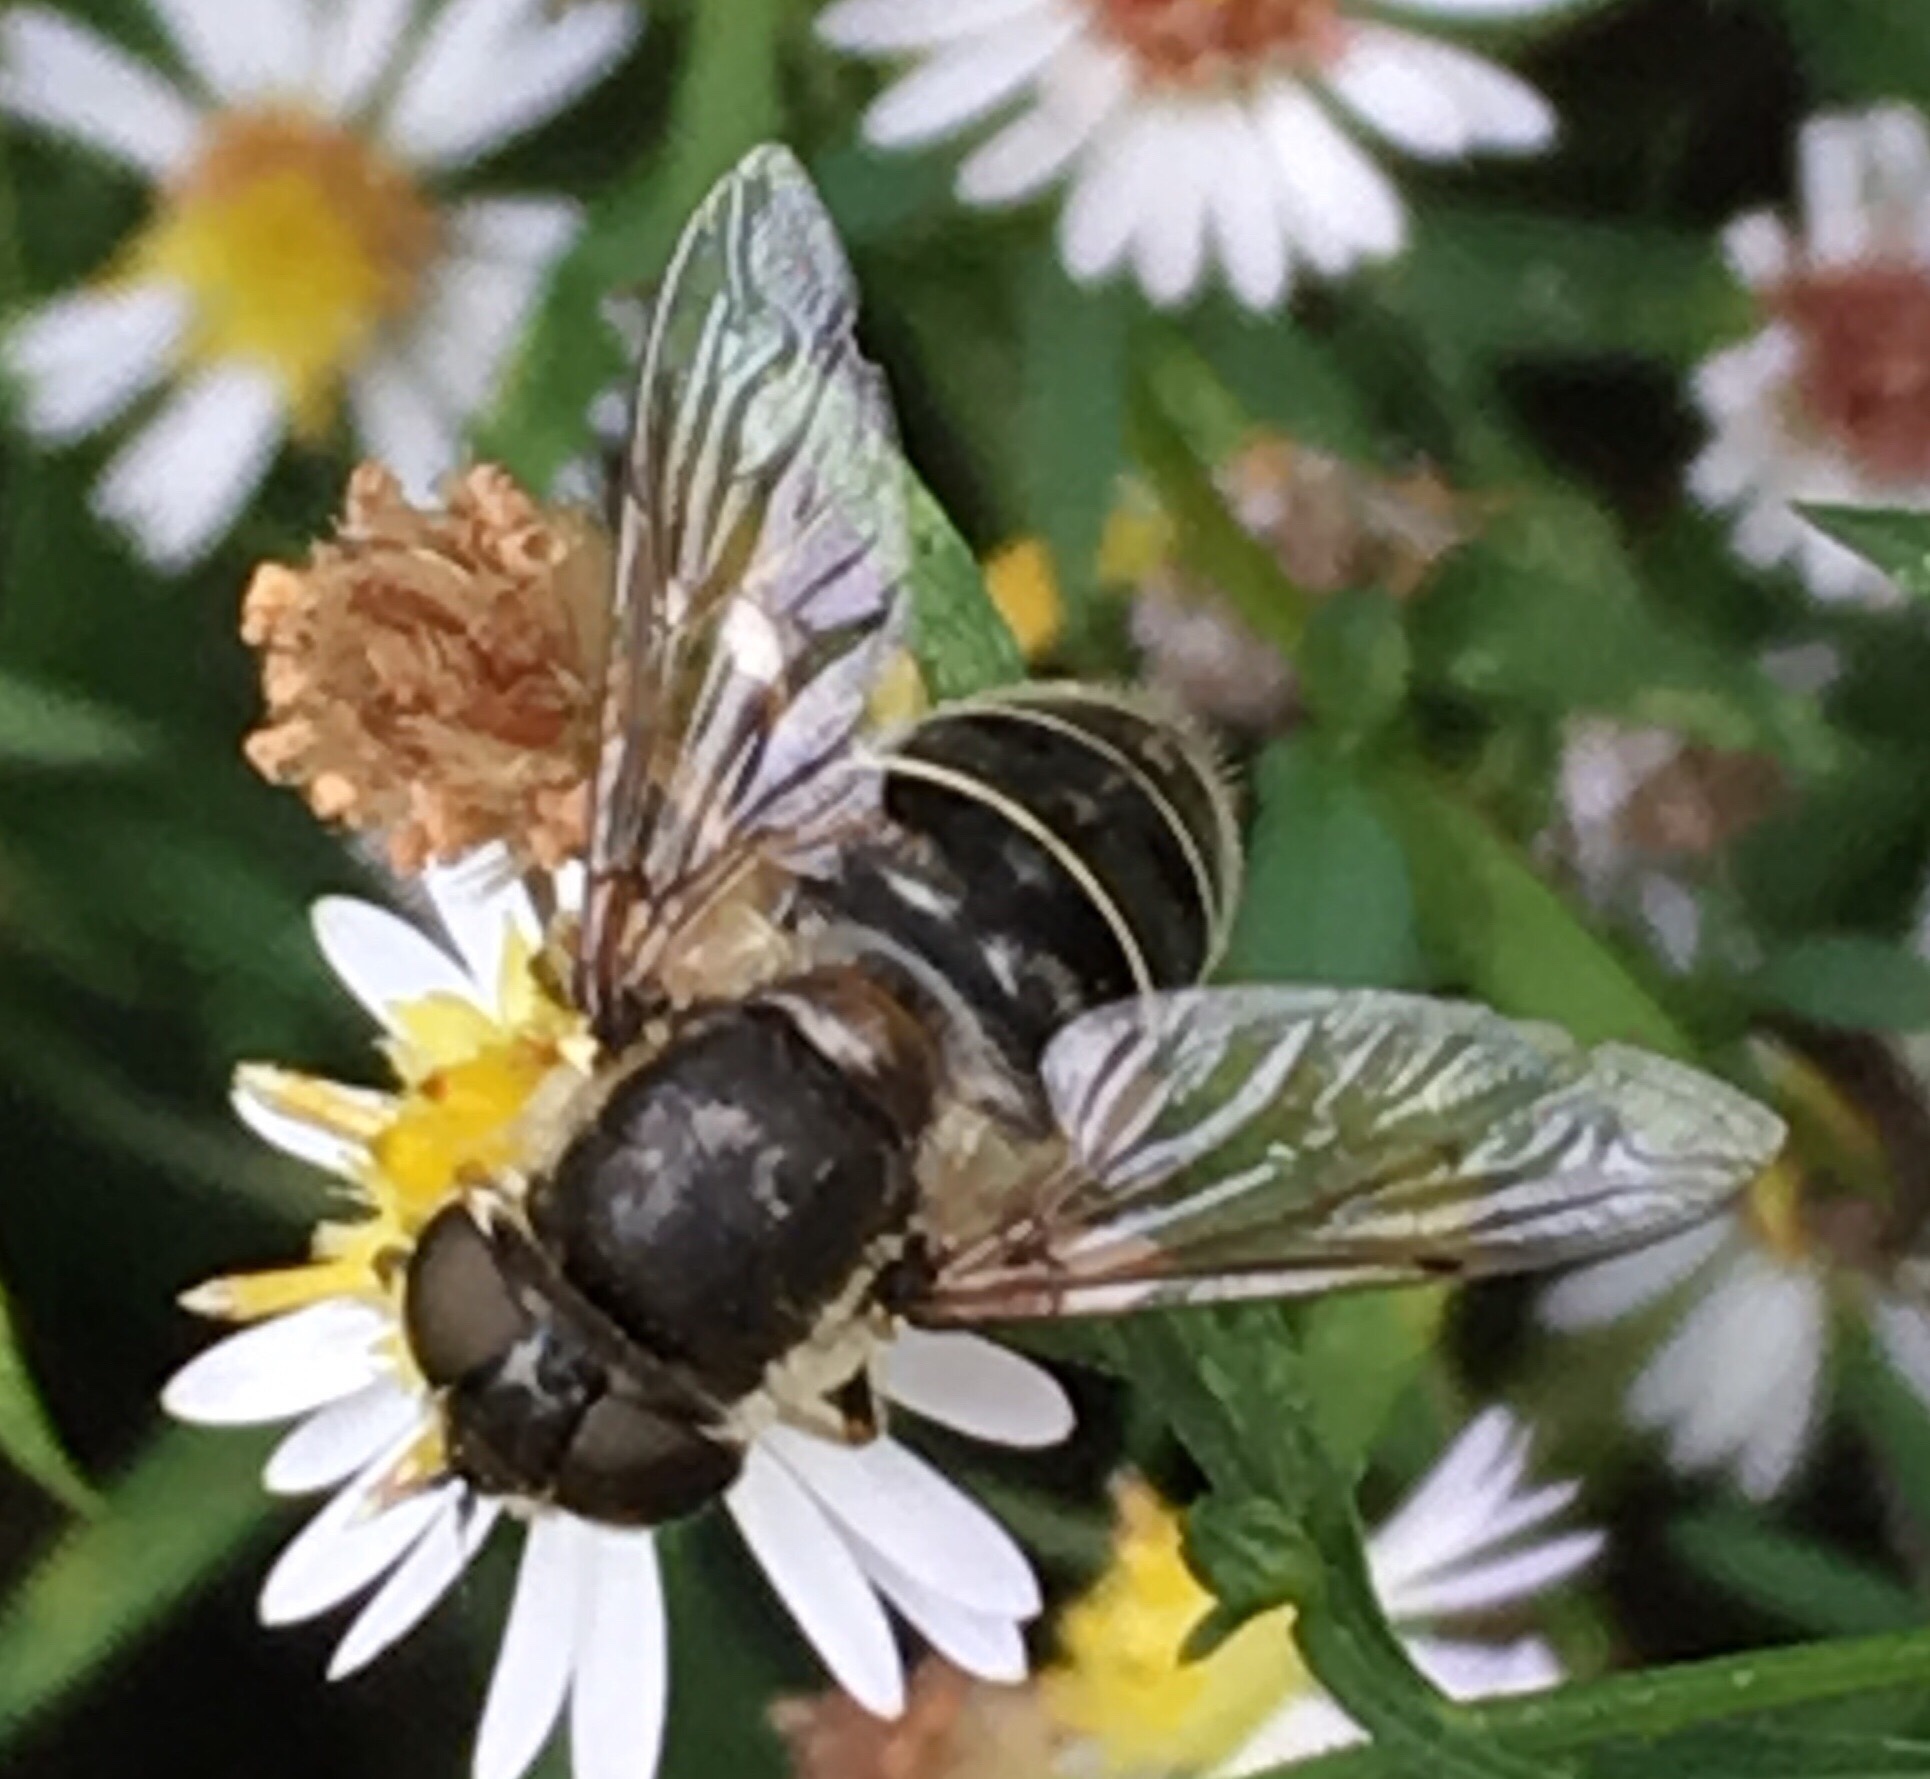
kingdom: Animalia
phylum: Arthropoda
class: Insecta
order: Diptera
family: Syrphidae
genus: Eristalis
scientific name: Eristalis dimidiata
